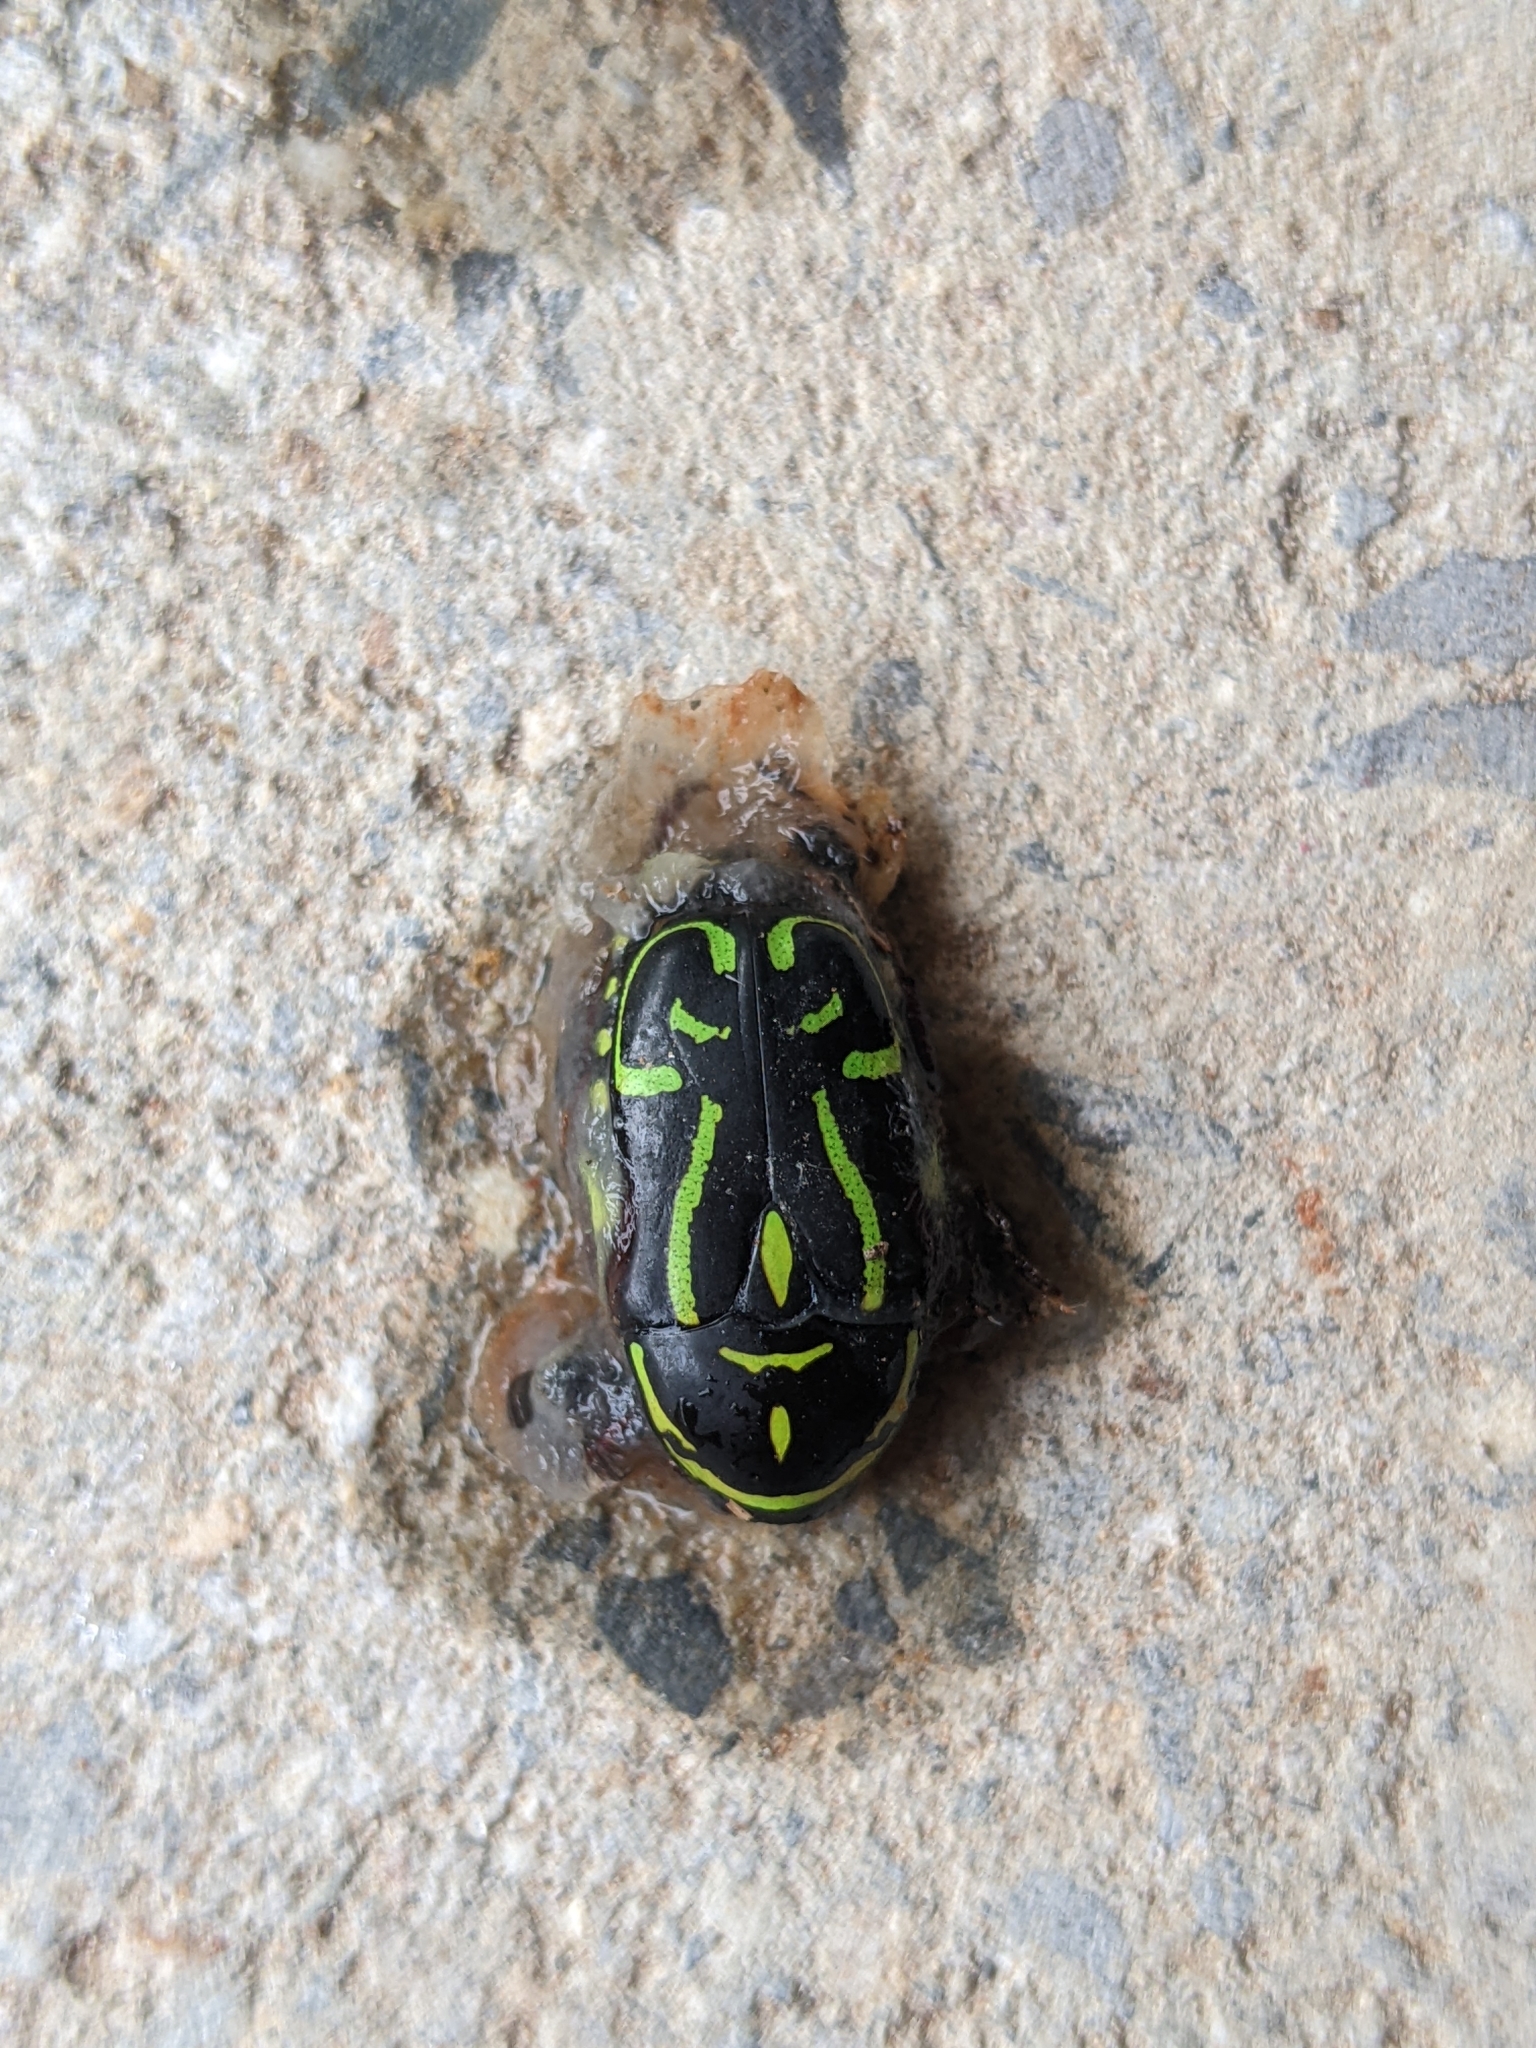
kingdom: Animalia
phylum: Arthropoda
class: Insecta
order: Coleoptera
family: Scarabaeidae
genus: Eupoecila
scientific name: Eupoecila australasiae
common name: Fiddler beetle
